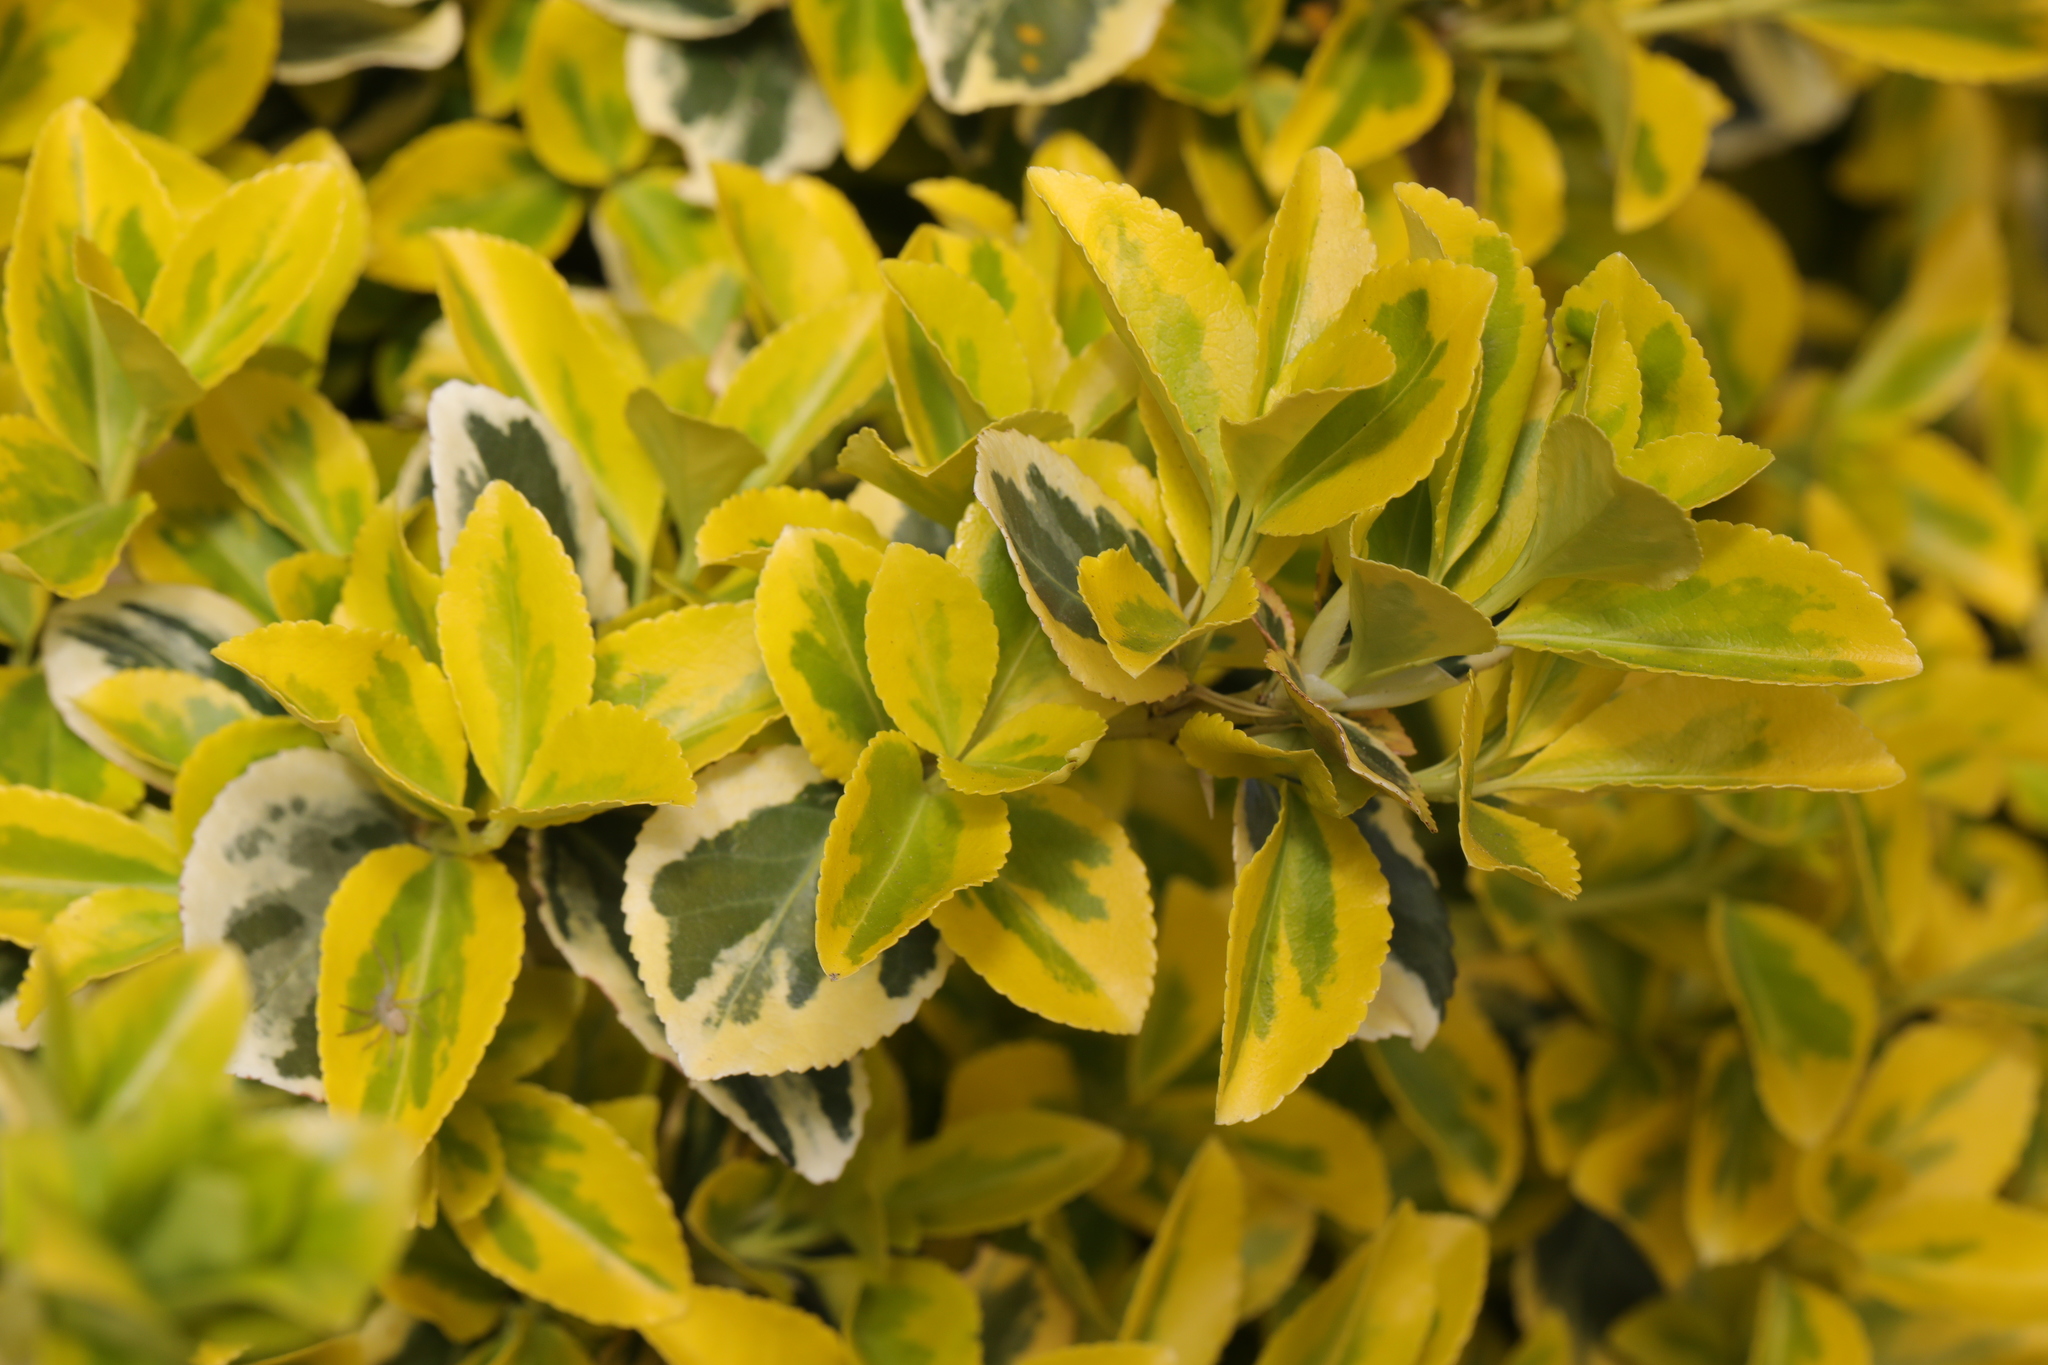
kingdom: Plantae
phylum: Tracheophyta
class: Magnoliopsida
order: Celastrales
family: Celastraceae
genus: Euonymus
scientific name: Euonymus japonicus
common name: Japanese spindletree
